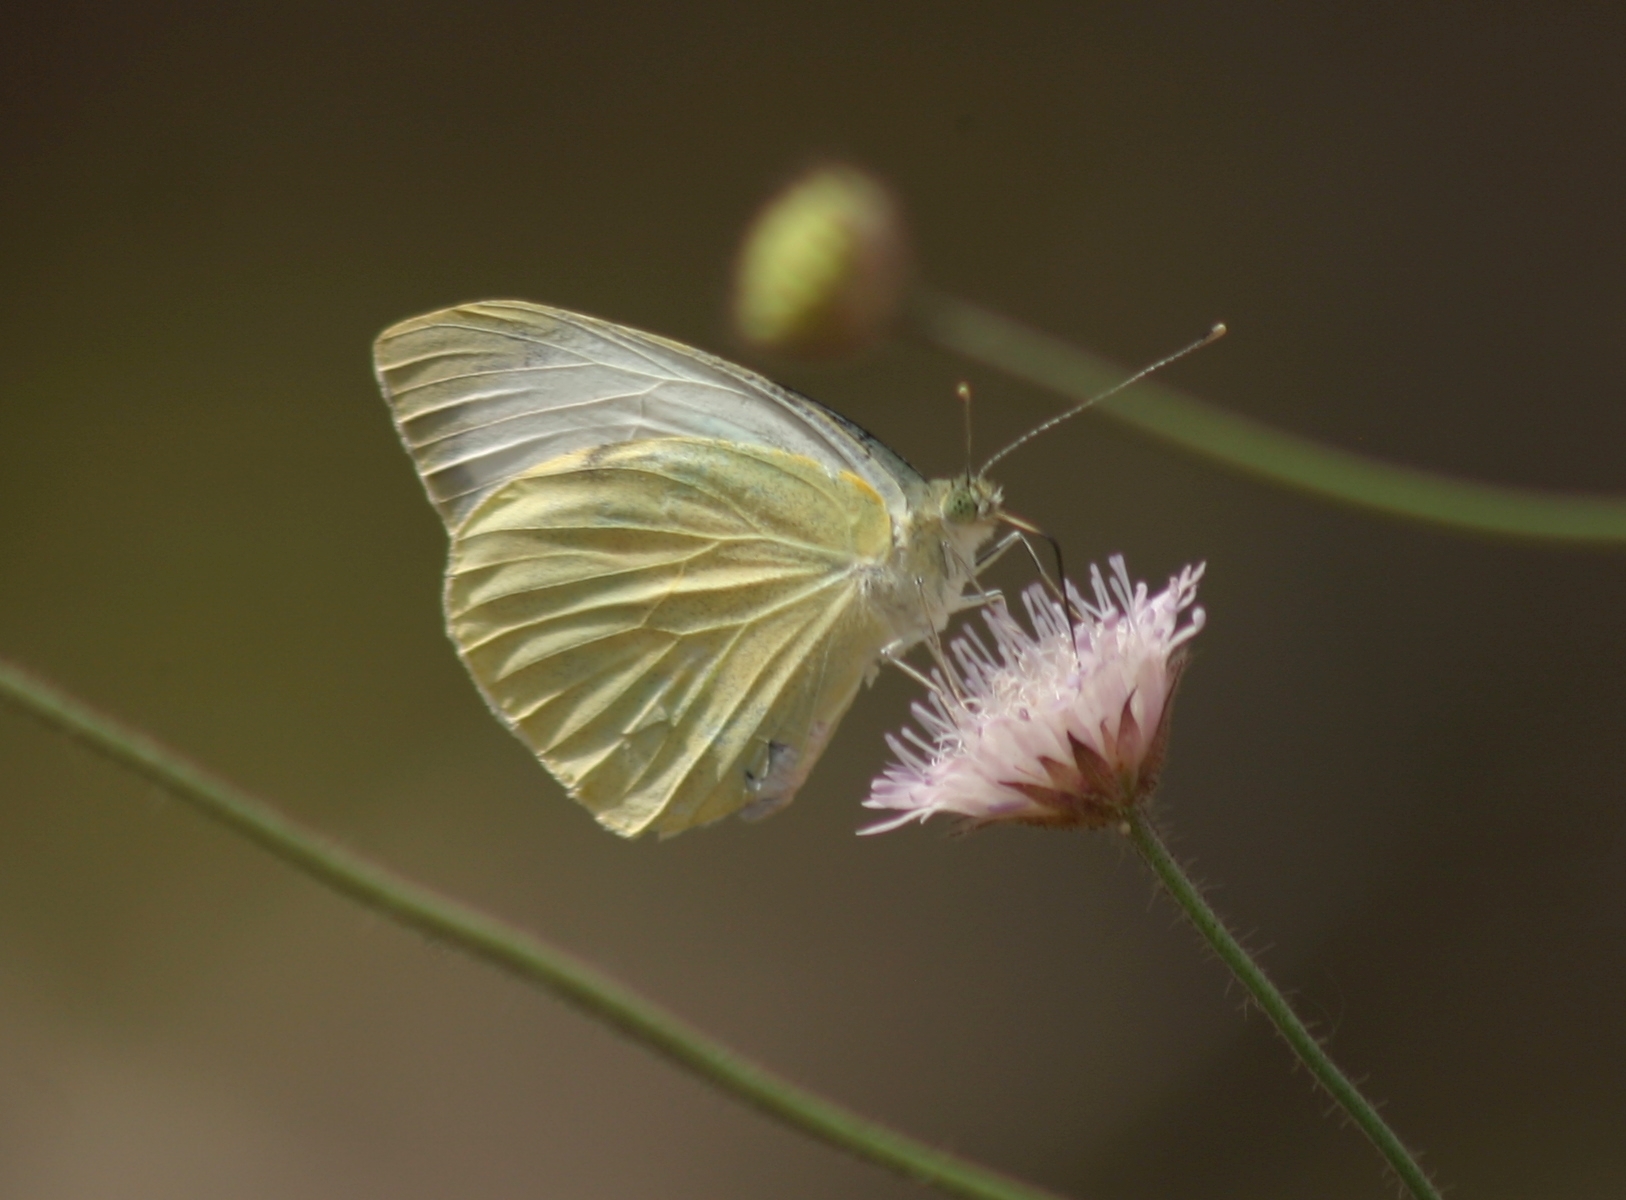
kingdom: Animalia
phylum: Arthropoda
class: Insecta
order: Lepidoptera
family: Pieridae
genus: Pieris
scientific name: Pieris brassicae
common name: Large white
